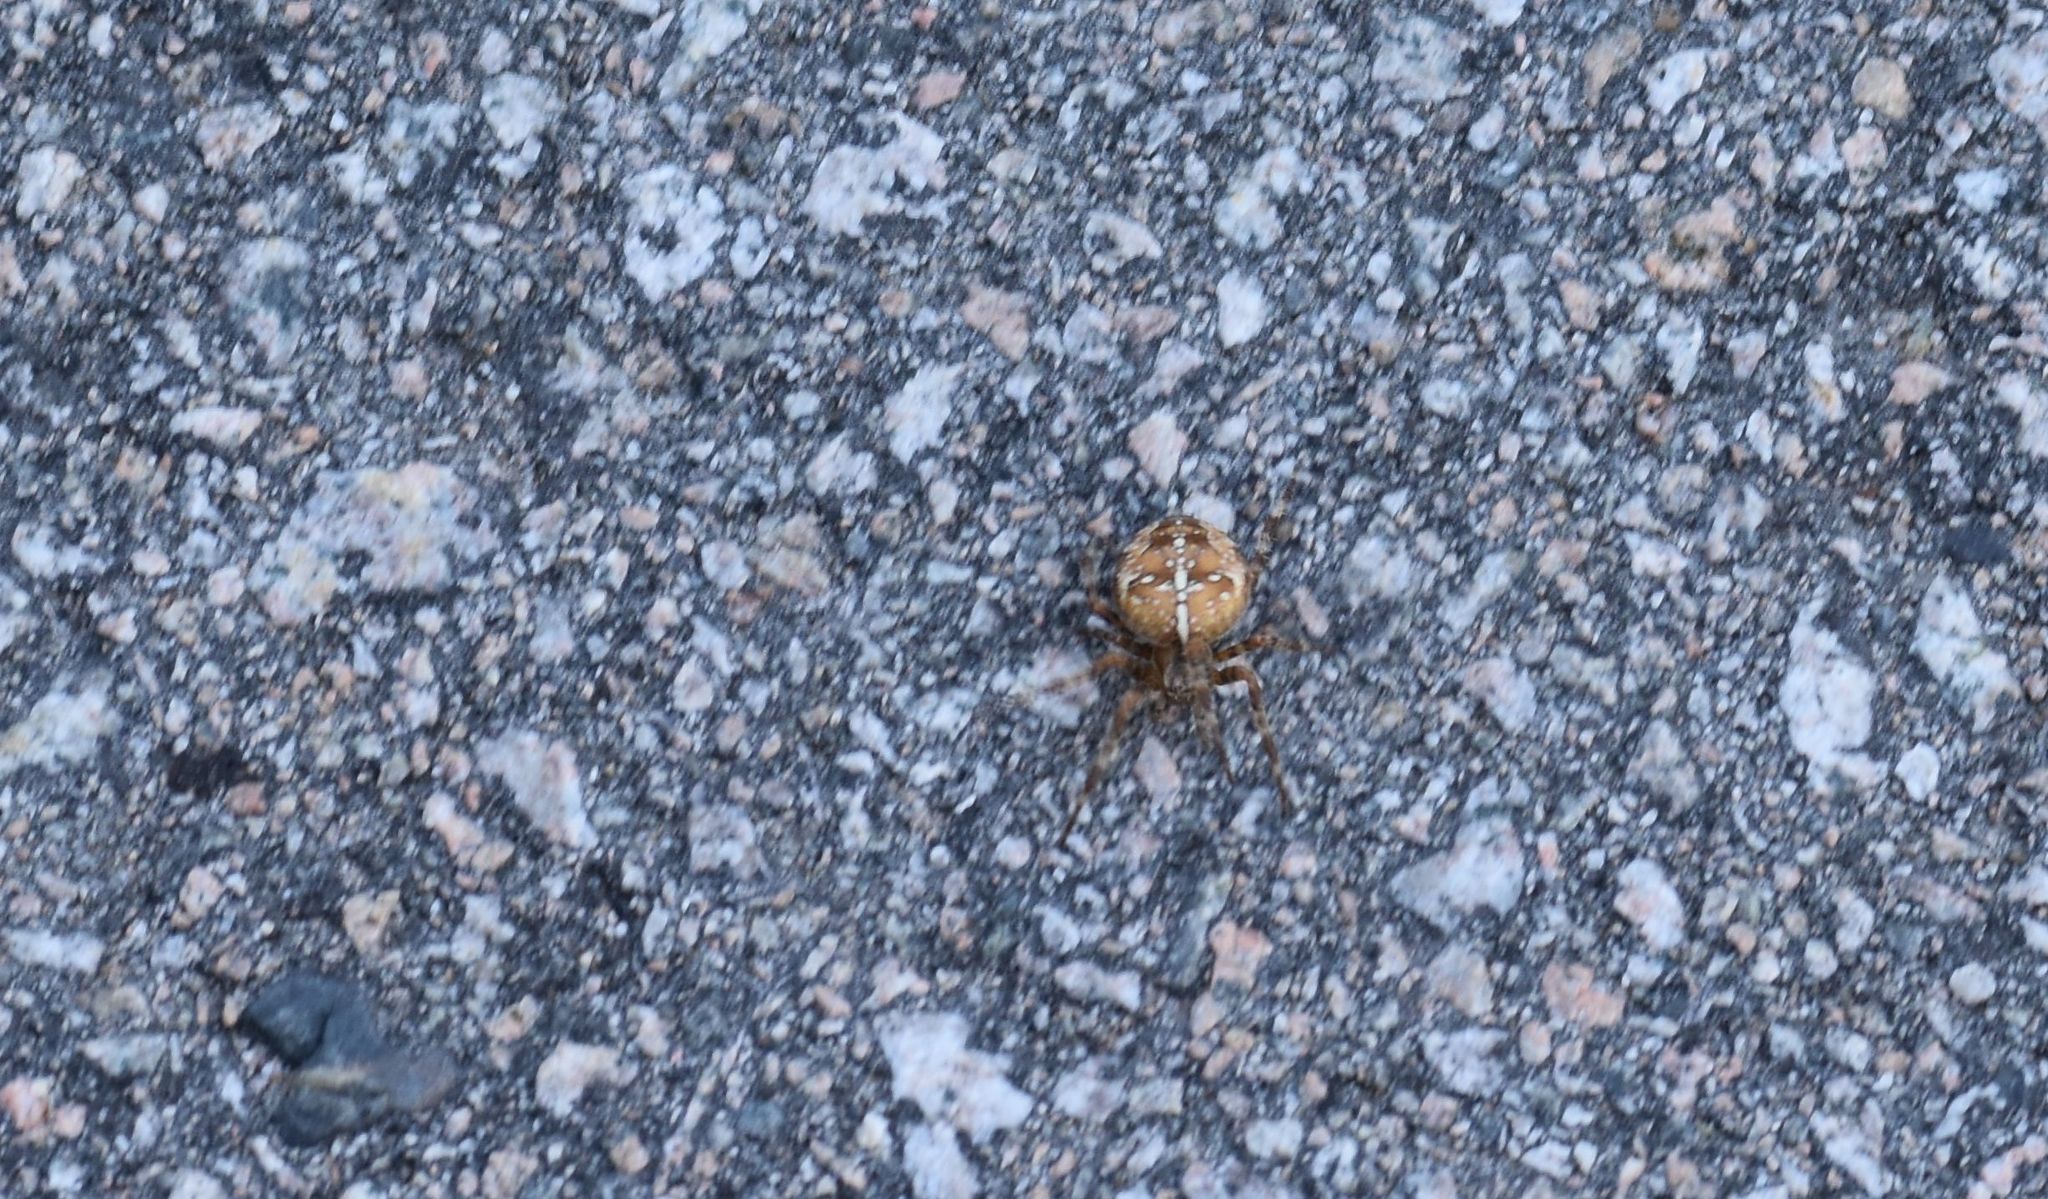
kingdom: Animalia
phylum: Arthropoda
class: Arachnida
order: Araneae
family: Araneidae
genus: Araneus
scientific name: Araneus diadematus
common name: Cross orbweaver
